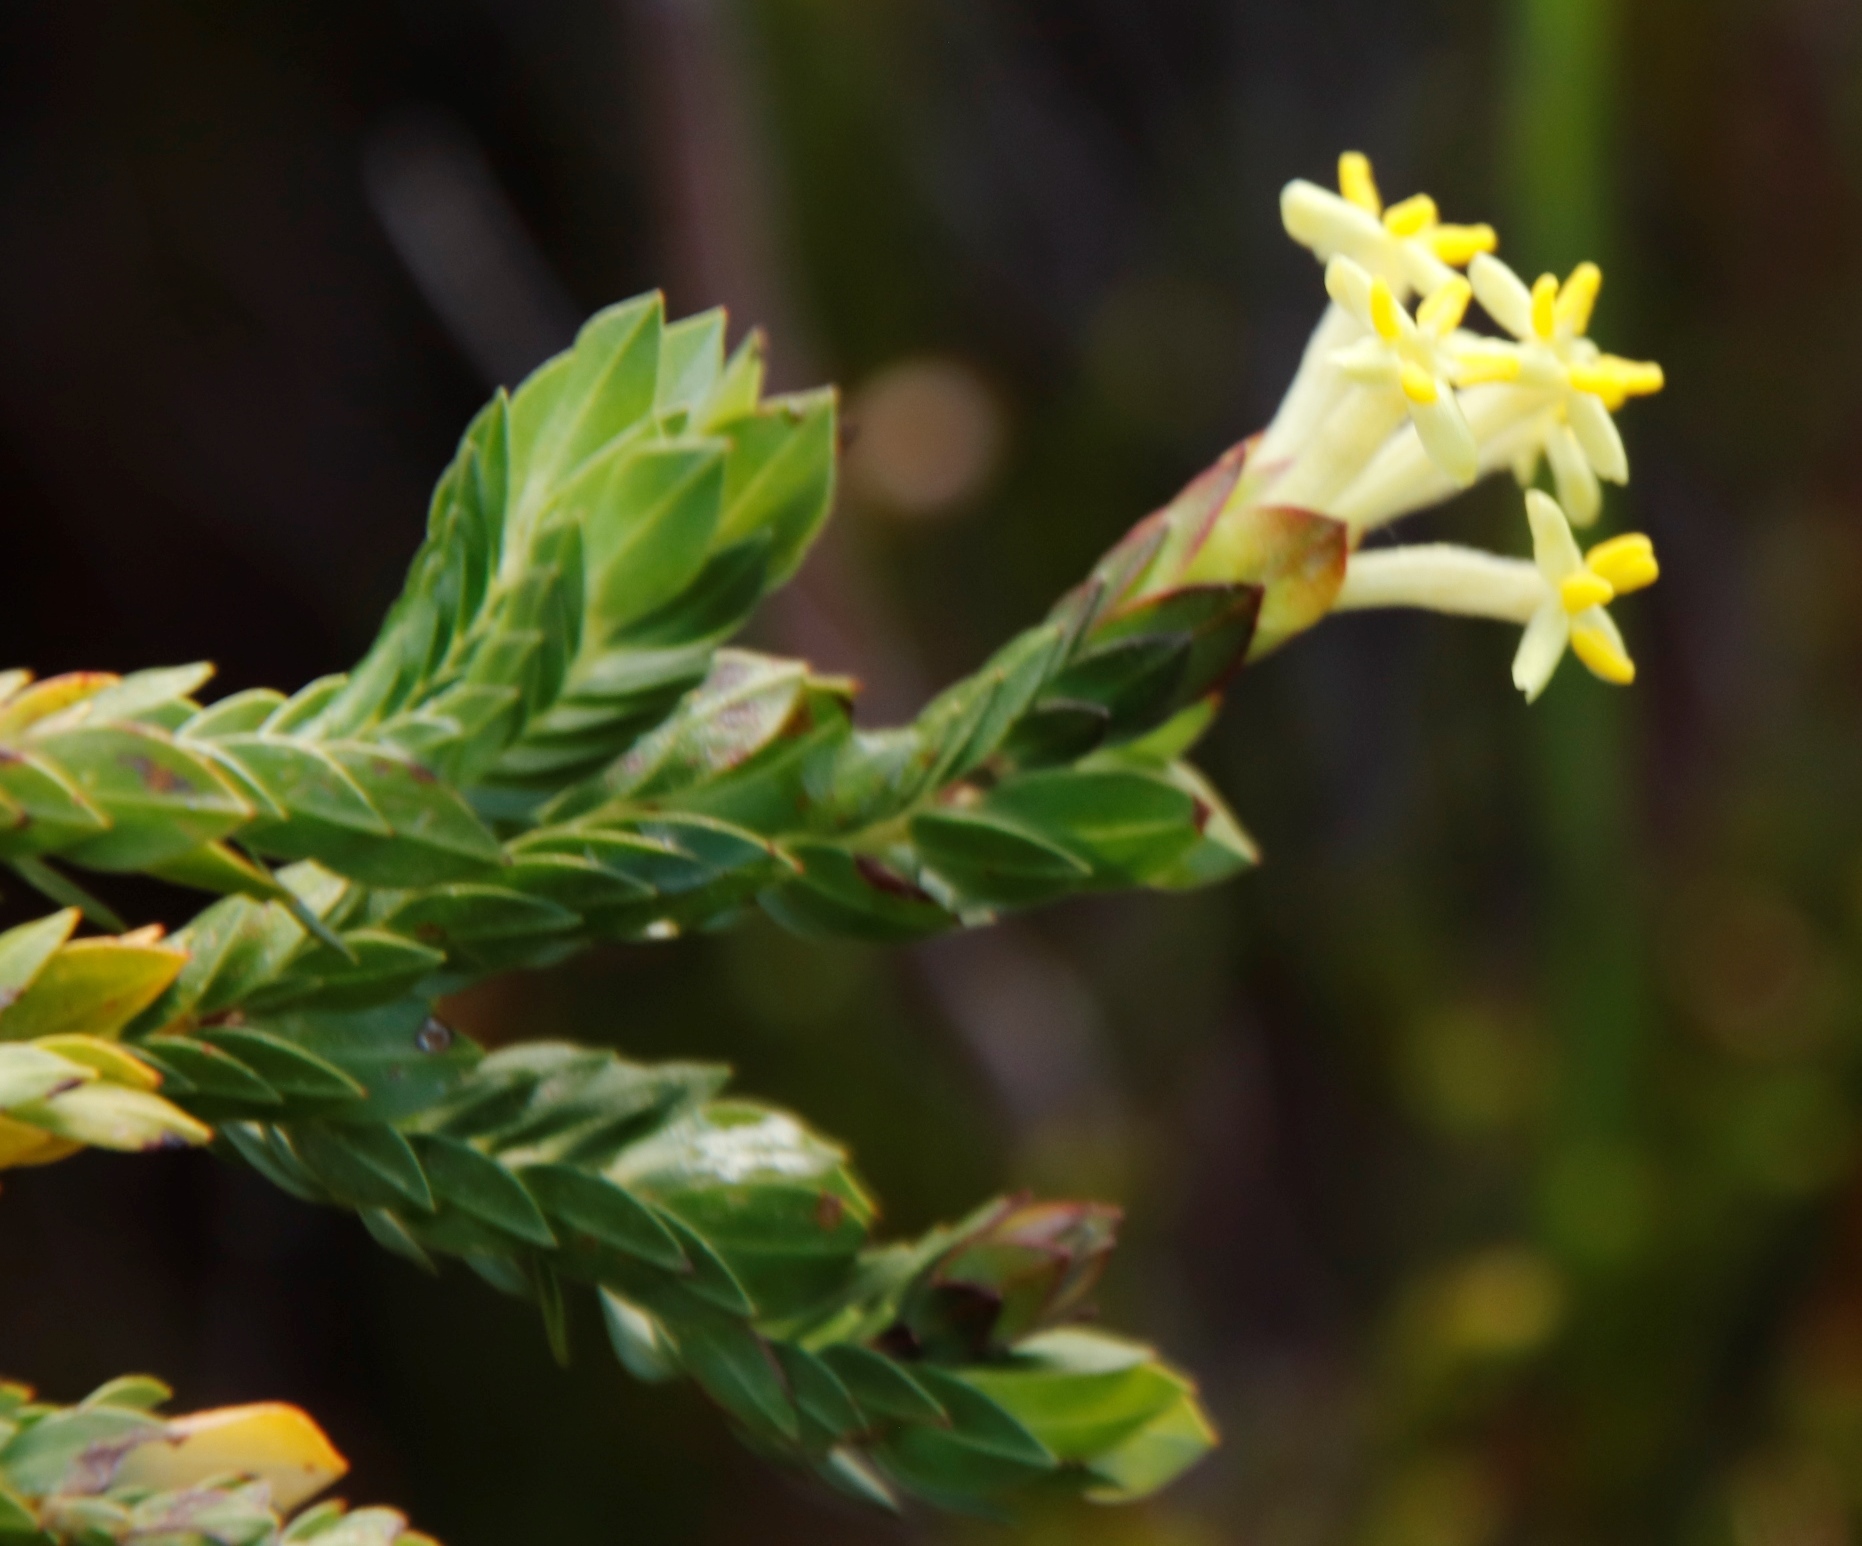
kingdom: Plantae
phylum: Tracheophyta
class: Magnoliopsida
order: Malvales
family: Thymelaeaceae
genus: Gnidia
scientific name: Gnidia oppositifolia
